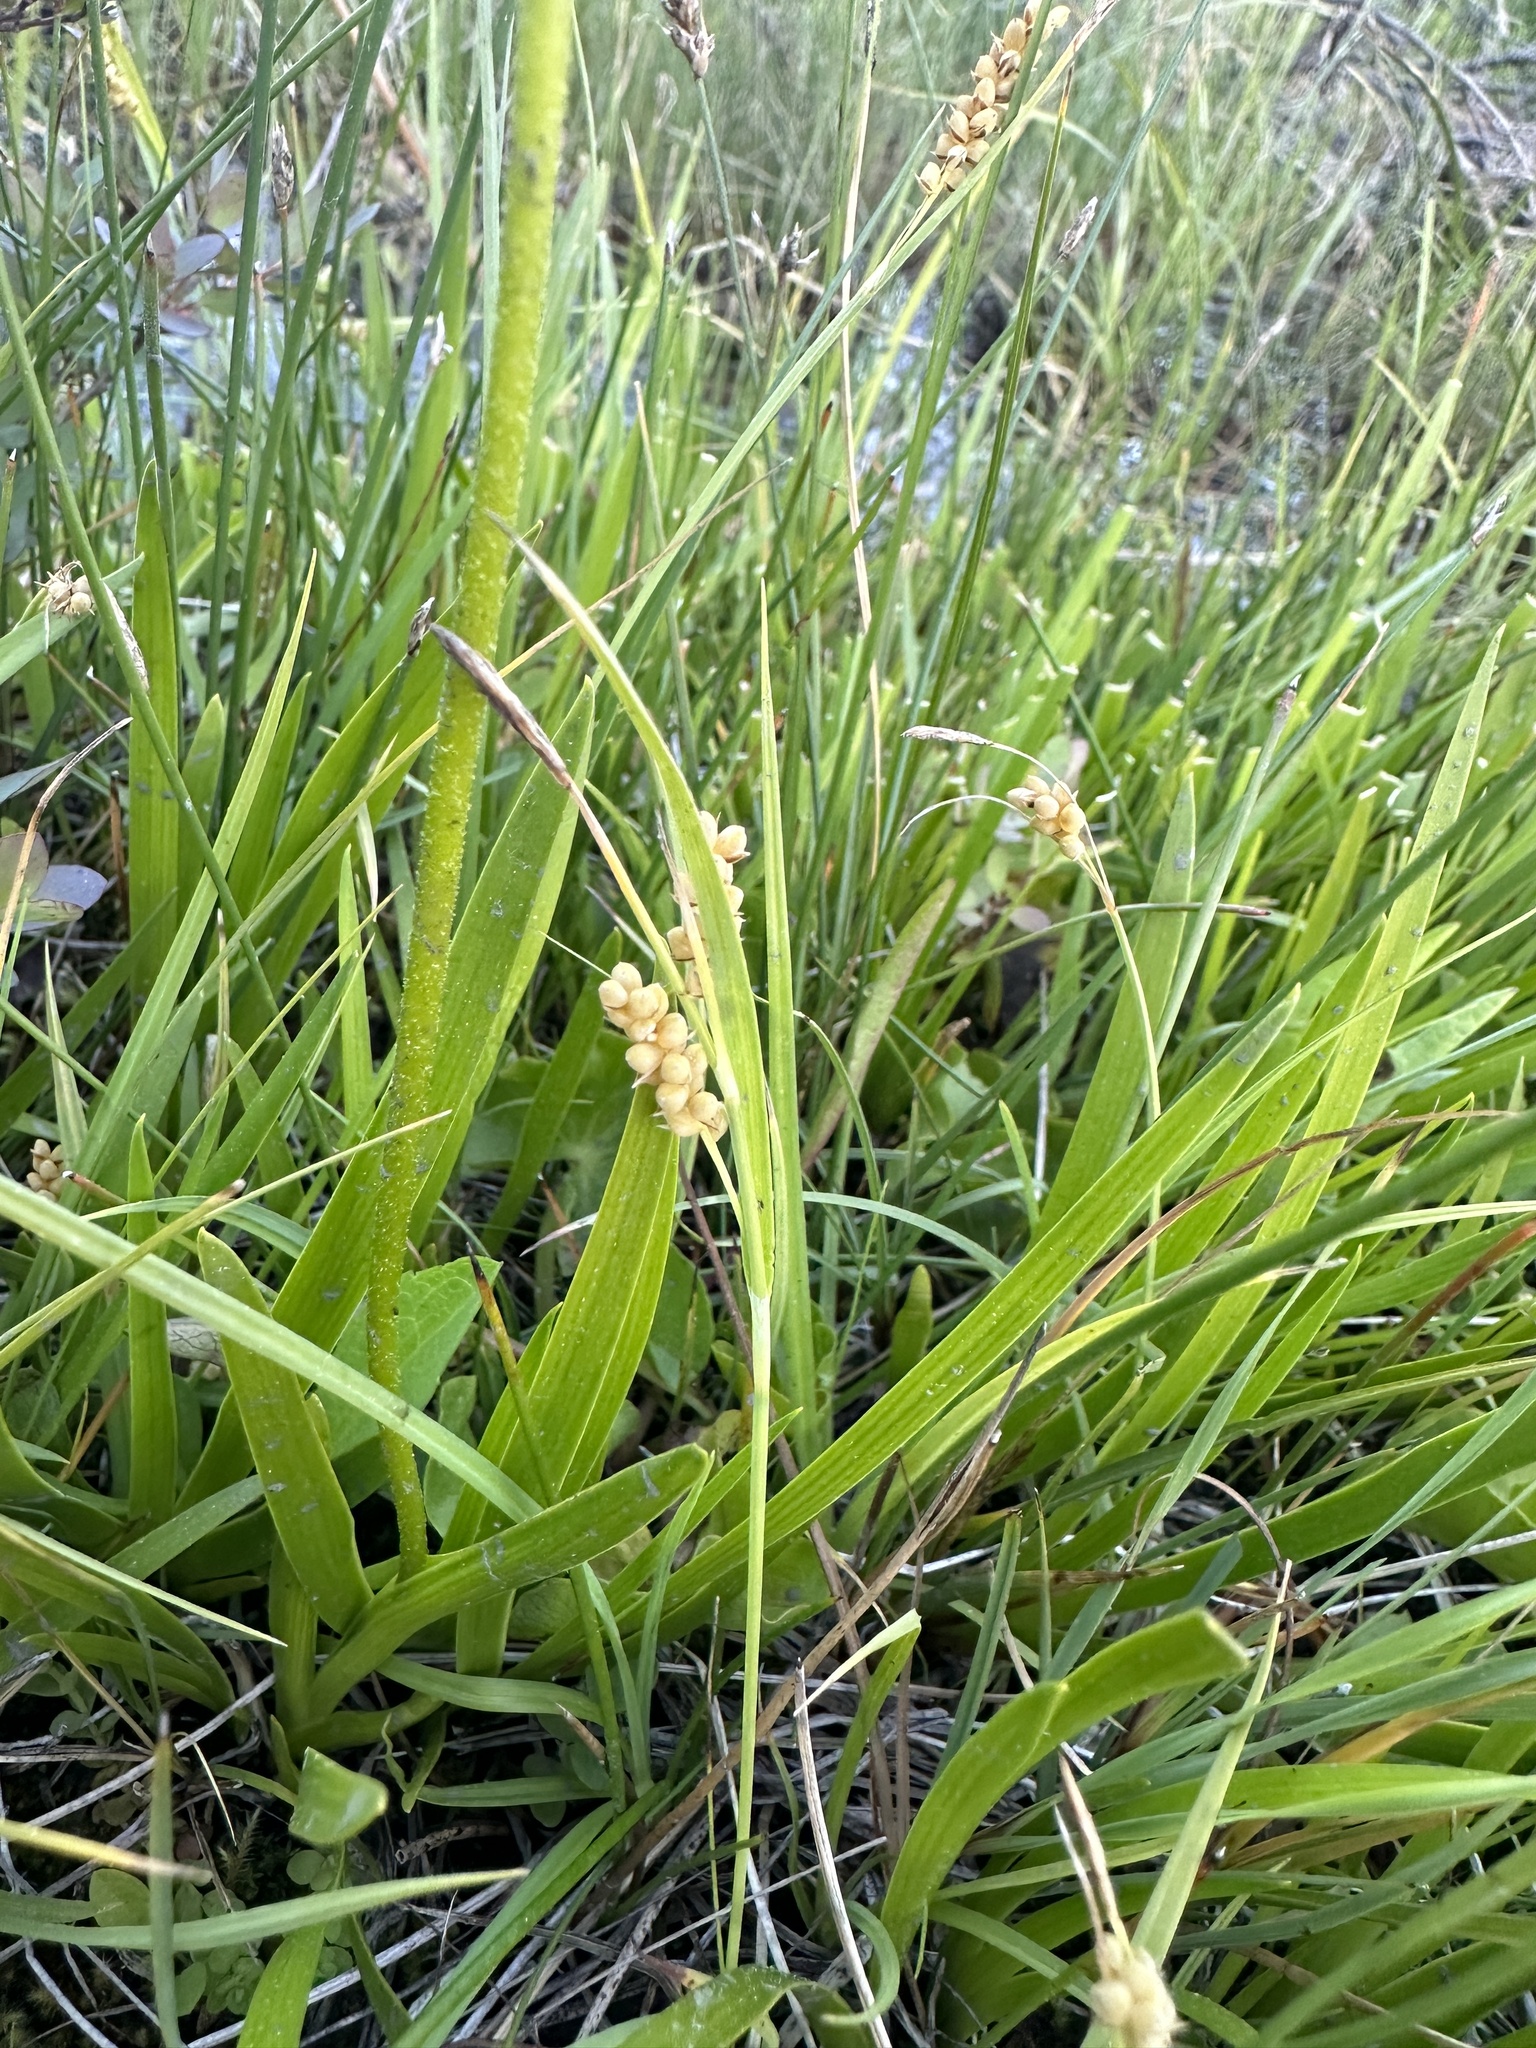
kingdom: Plantae
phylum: Tracheophyta
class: Liliopsida
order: Poales
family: Cyperaceae
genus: Carex
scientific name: Carex aurea
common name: Golden sedge
